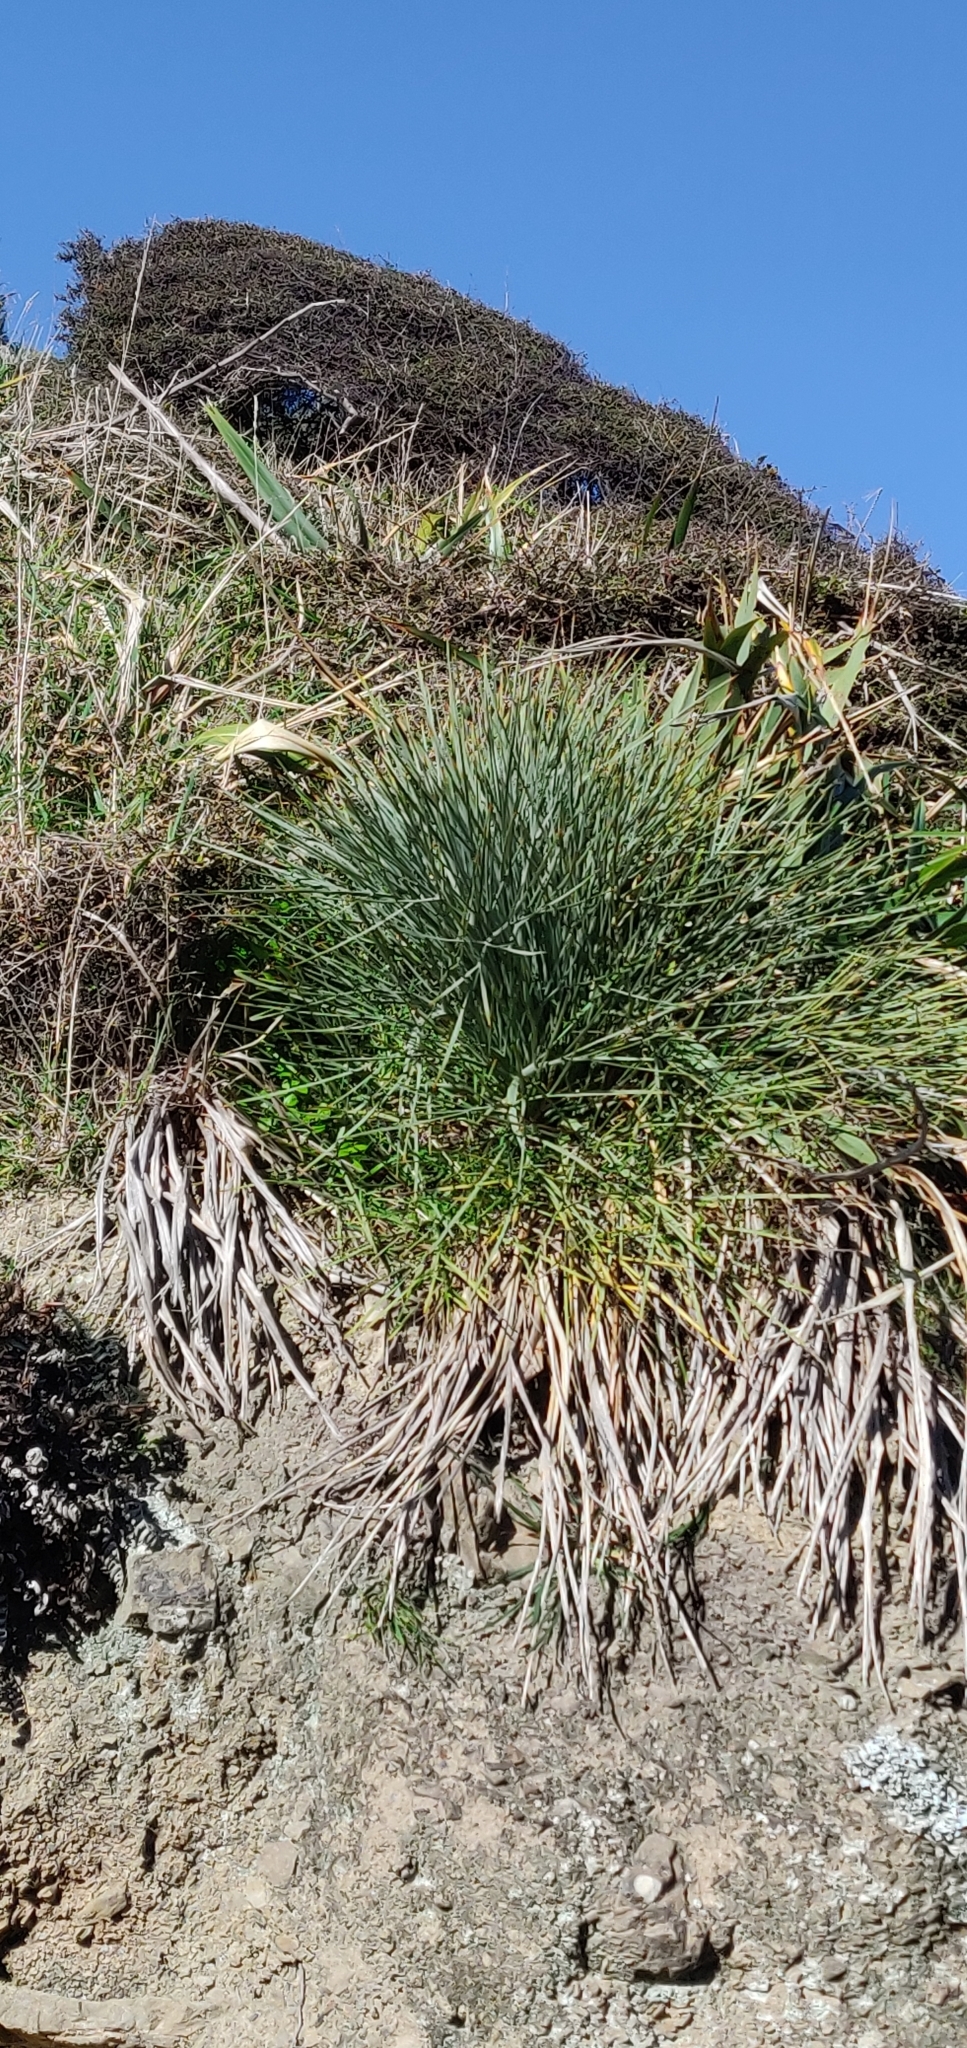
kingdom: Plantae
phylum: Tracheophyta
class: Magnoliopsida
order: Apiales
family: Apiaceae
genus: Aciphylla
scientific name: Aciphylla squarrosa
